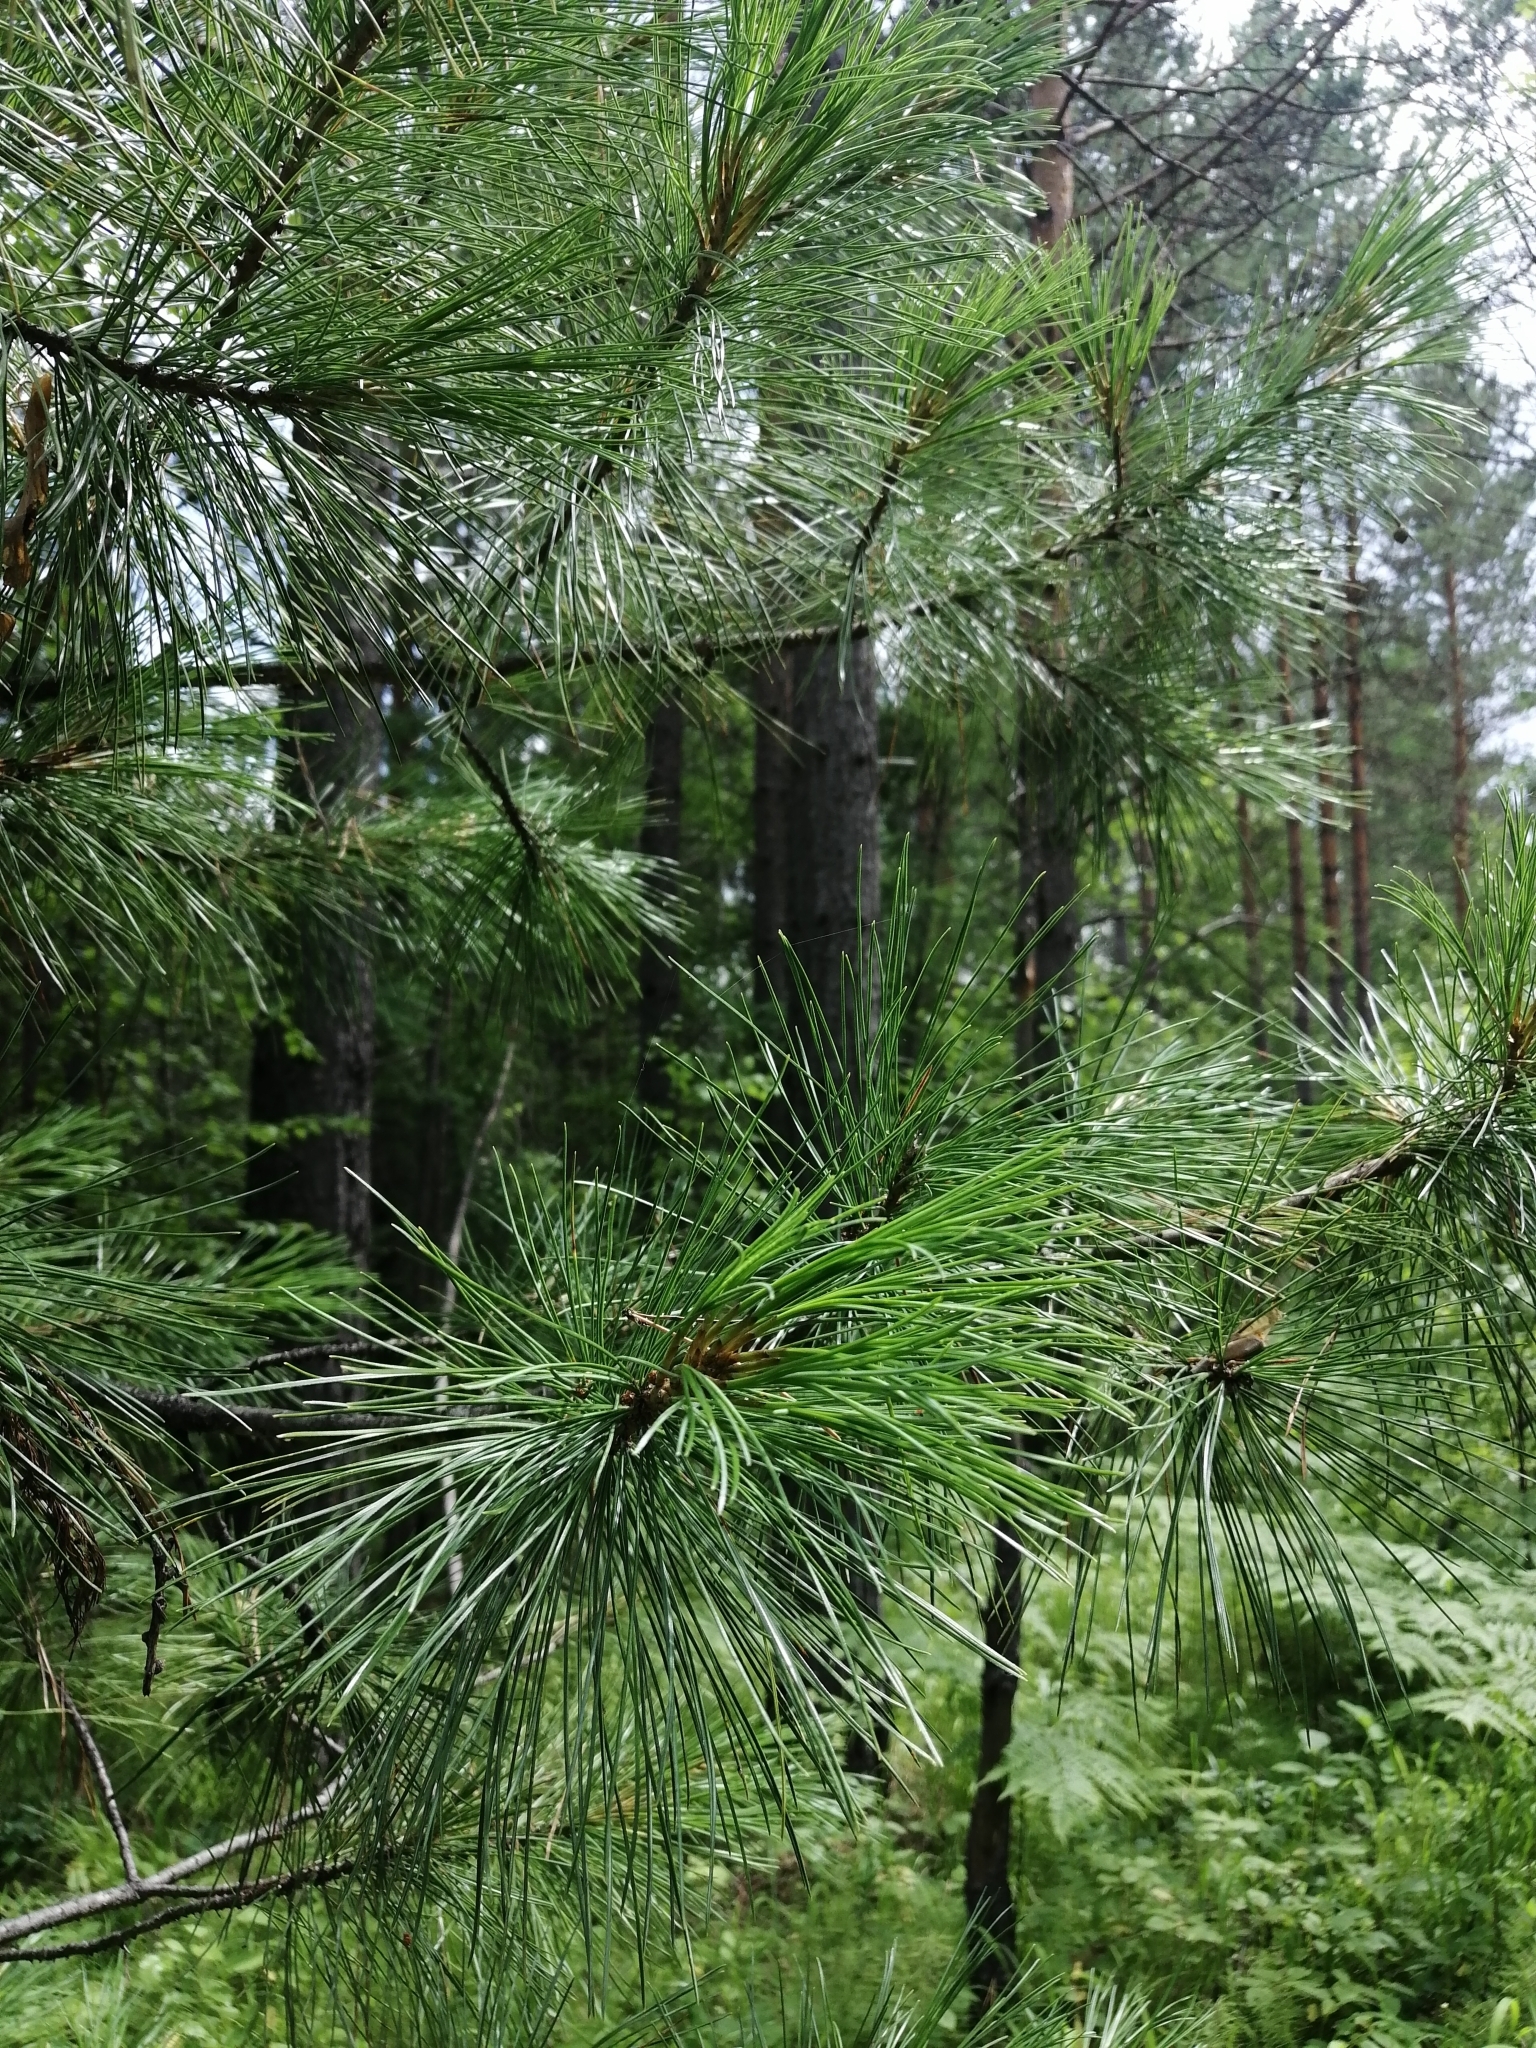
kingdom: Plantae
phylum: Tracheophyta
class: Pinopsida
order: Pinales
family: Pinaceae
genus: Pinus
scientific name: Pinus sibirica
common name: Siberian pine
